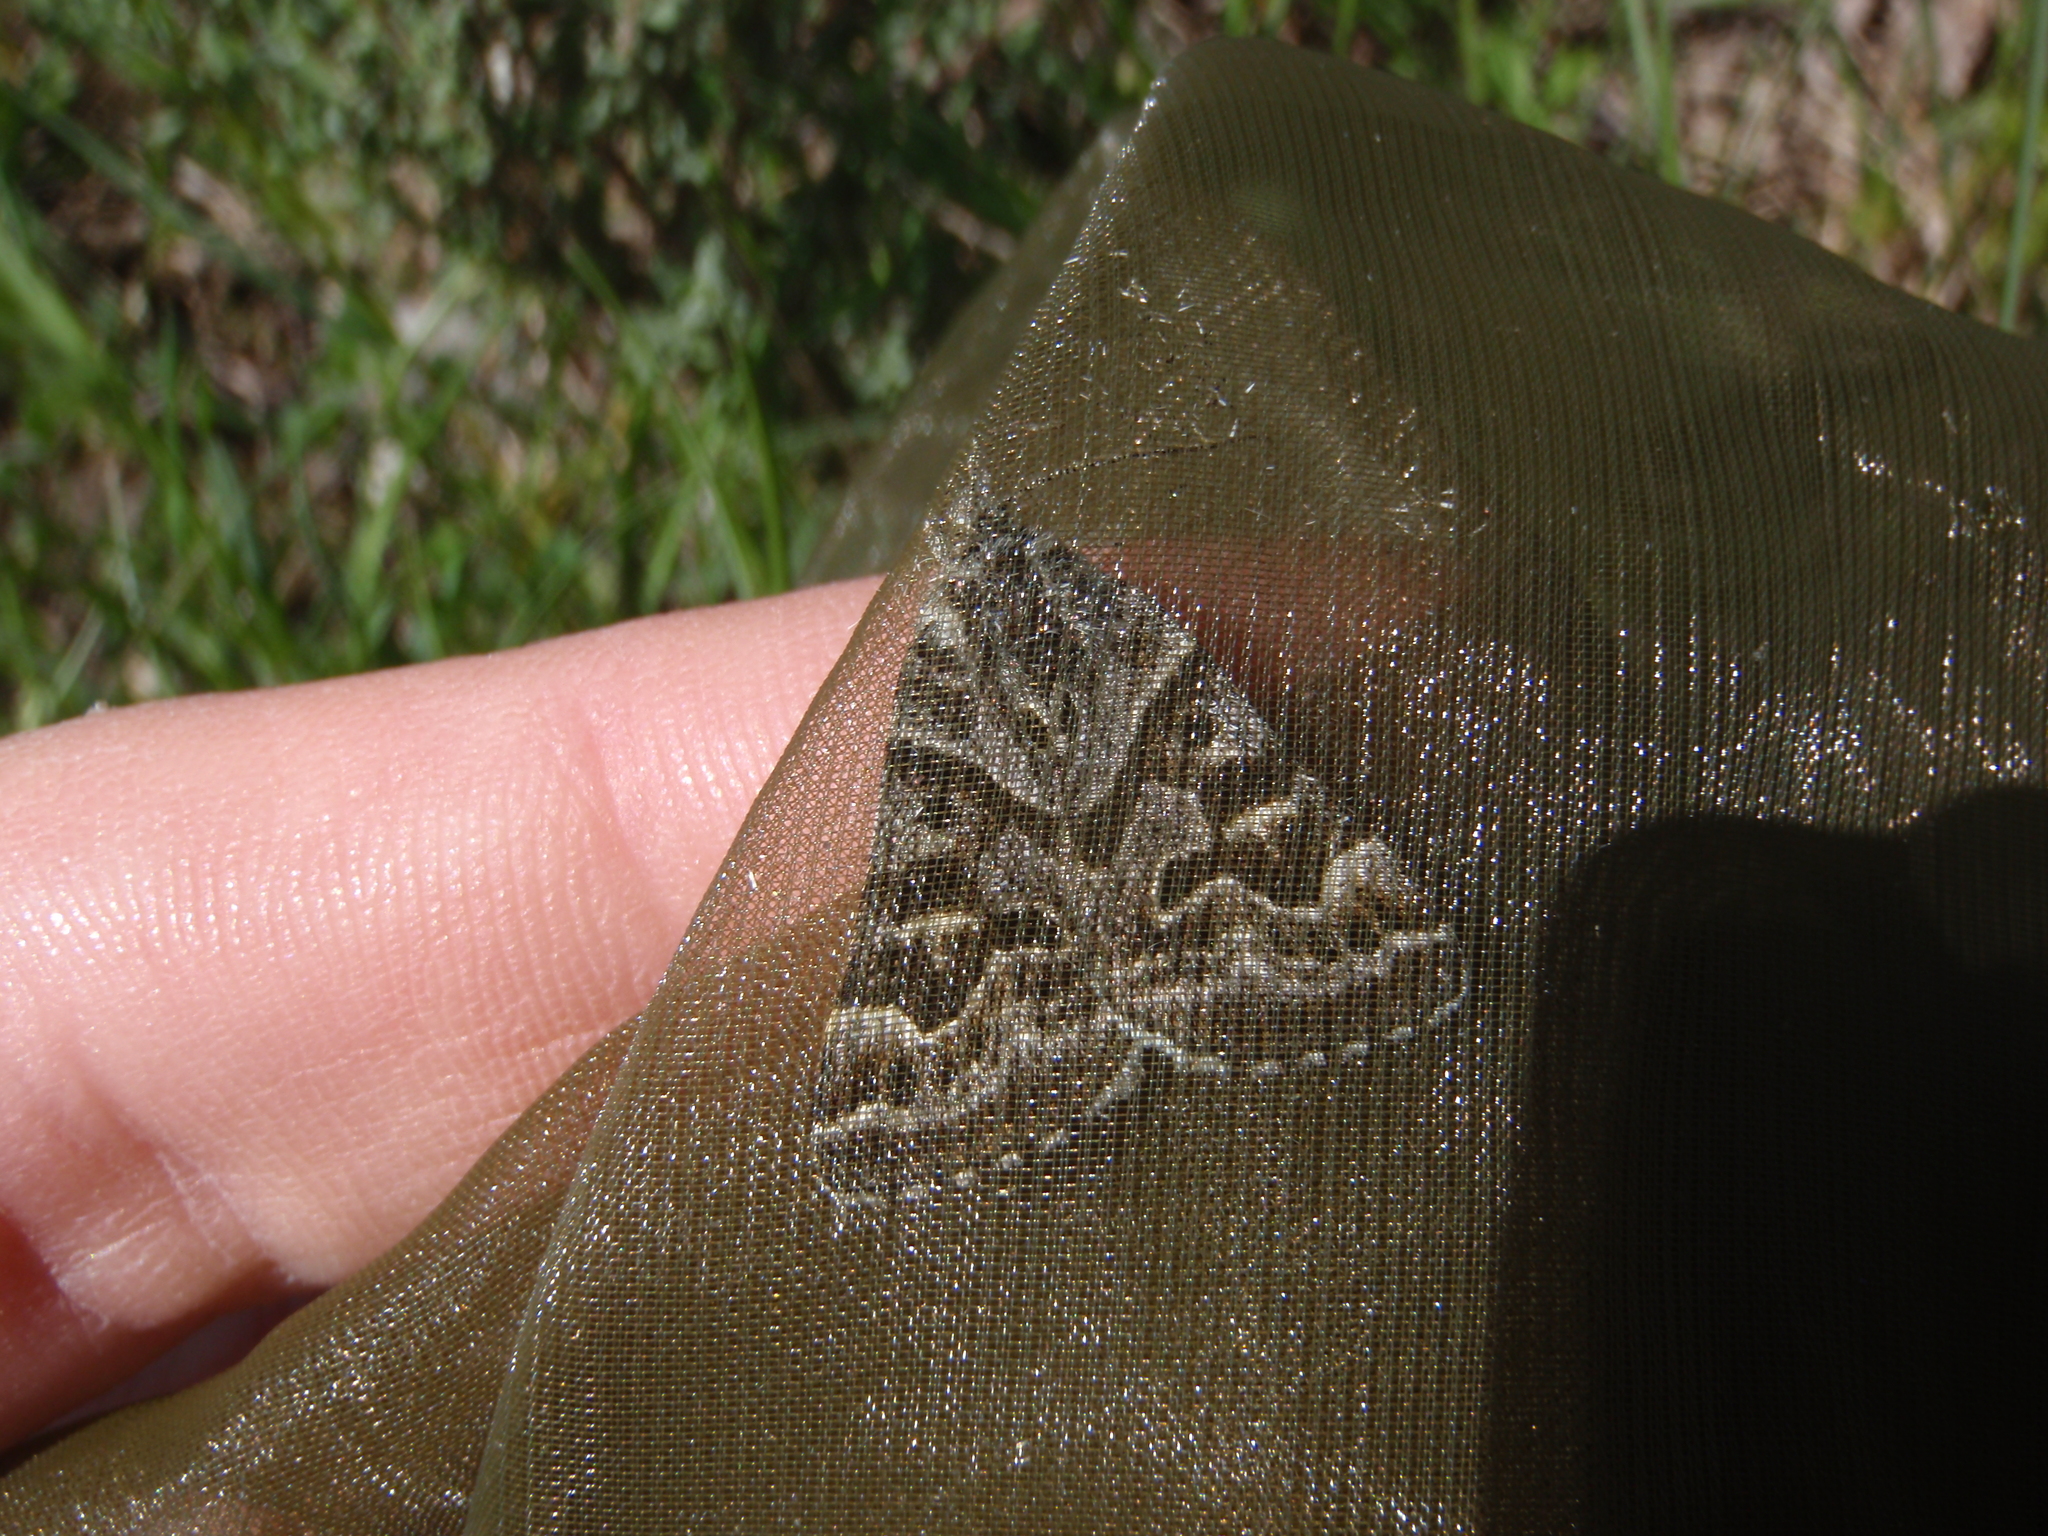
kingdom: Animalia
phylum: Arthropoda
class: Insecta
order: Lepidoptera
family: Erebidae
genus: Callistege
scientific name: Callistege mi
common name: Mother shipton
